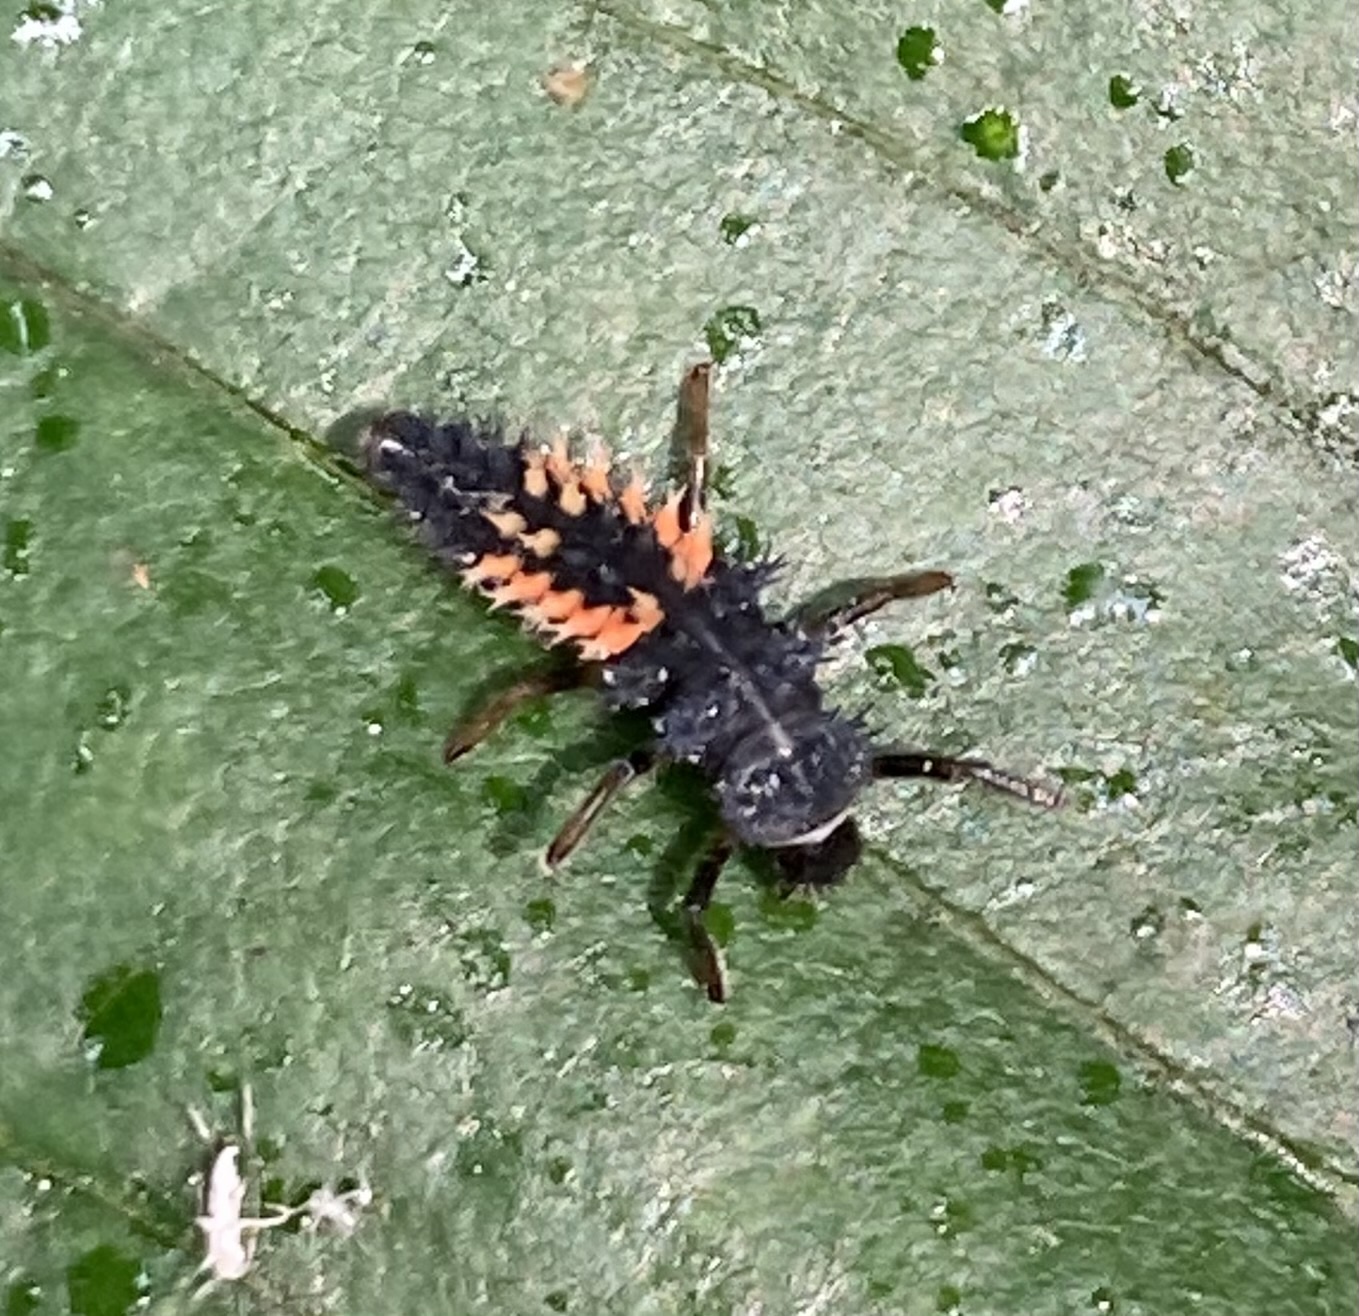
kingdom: Animalia
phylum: Arthropoda
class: Insecta
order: Coleoptera
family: Coccinellidae
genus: Harmonia
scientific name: Harmonia axyridis
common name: Harlequin ladybird
